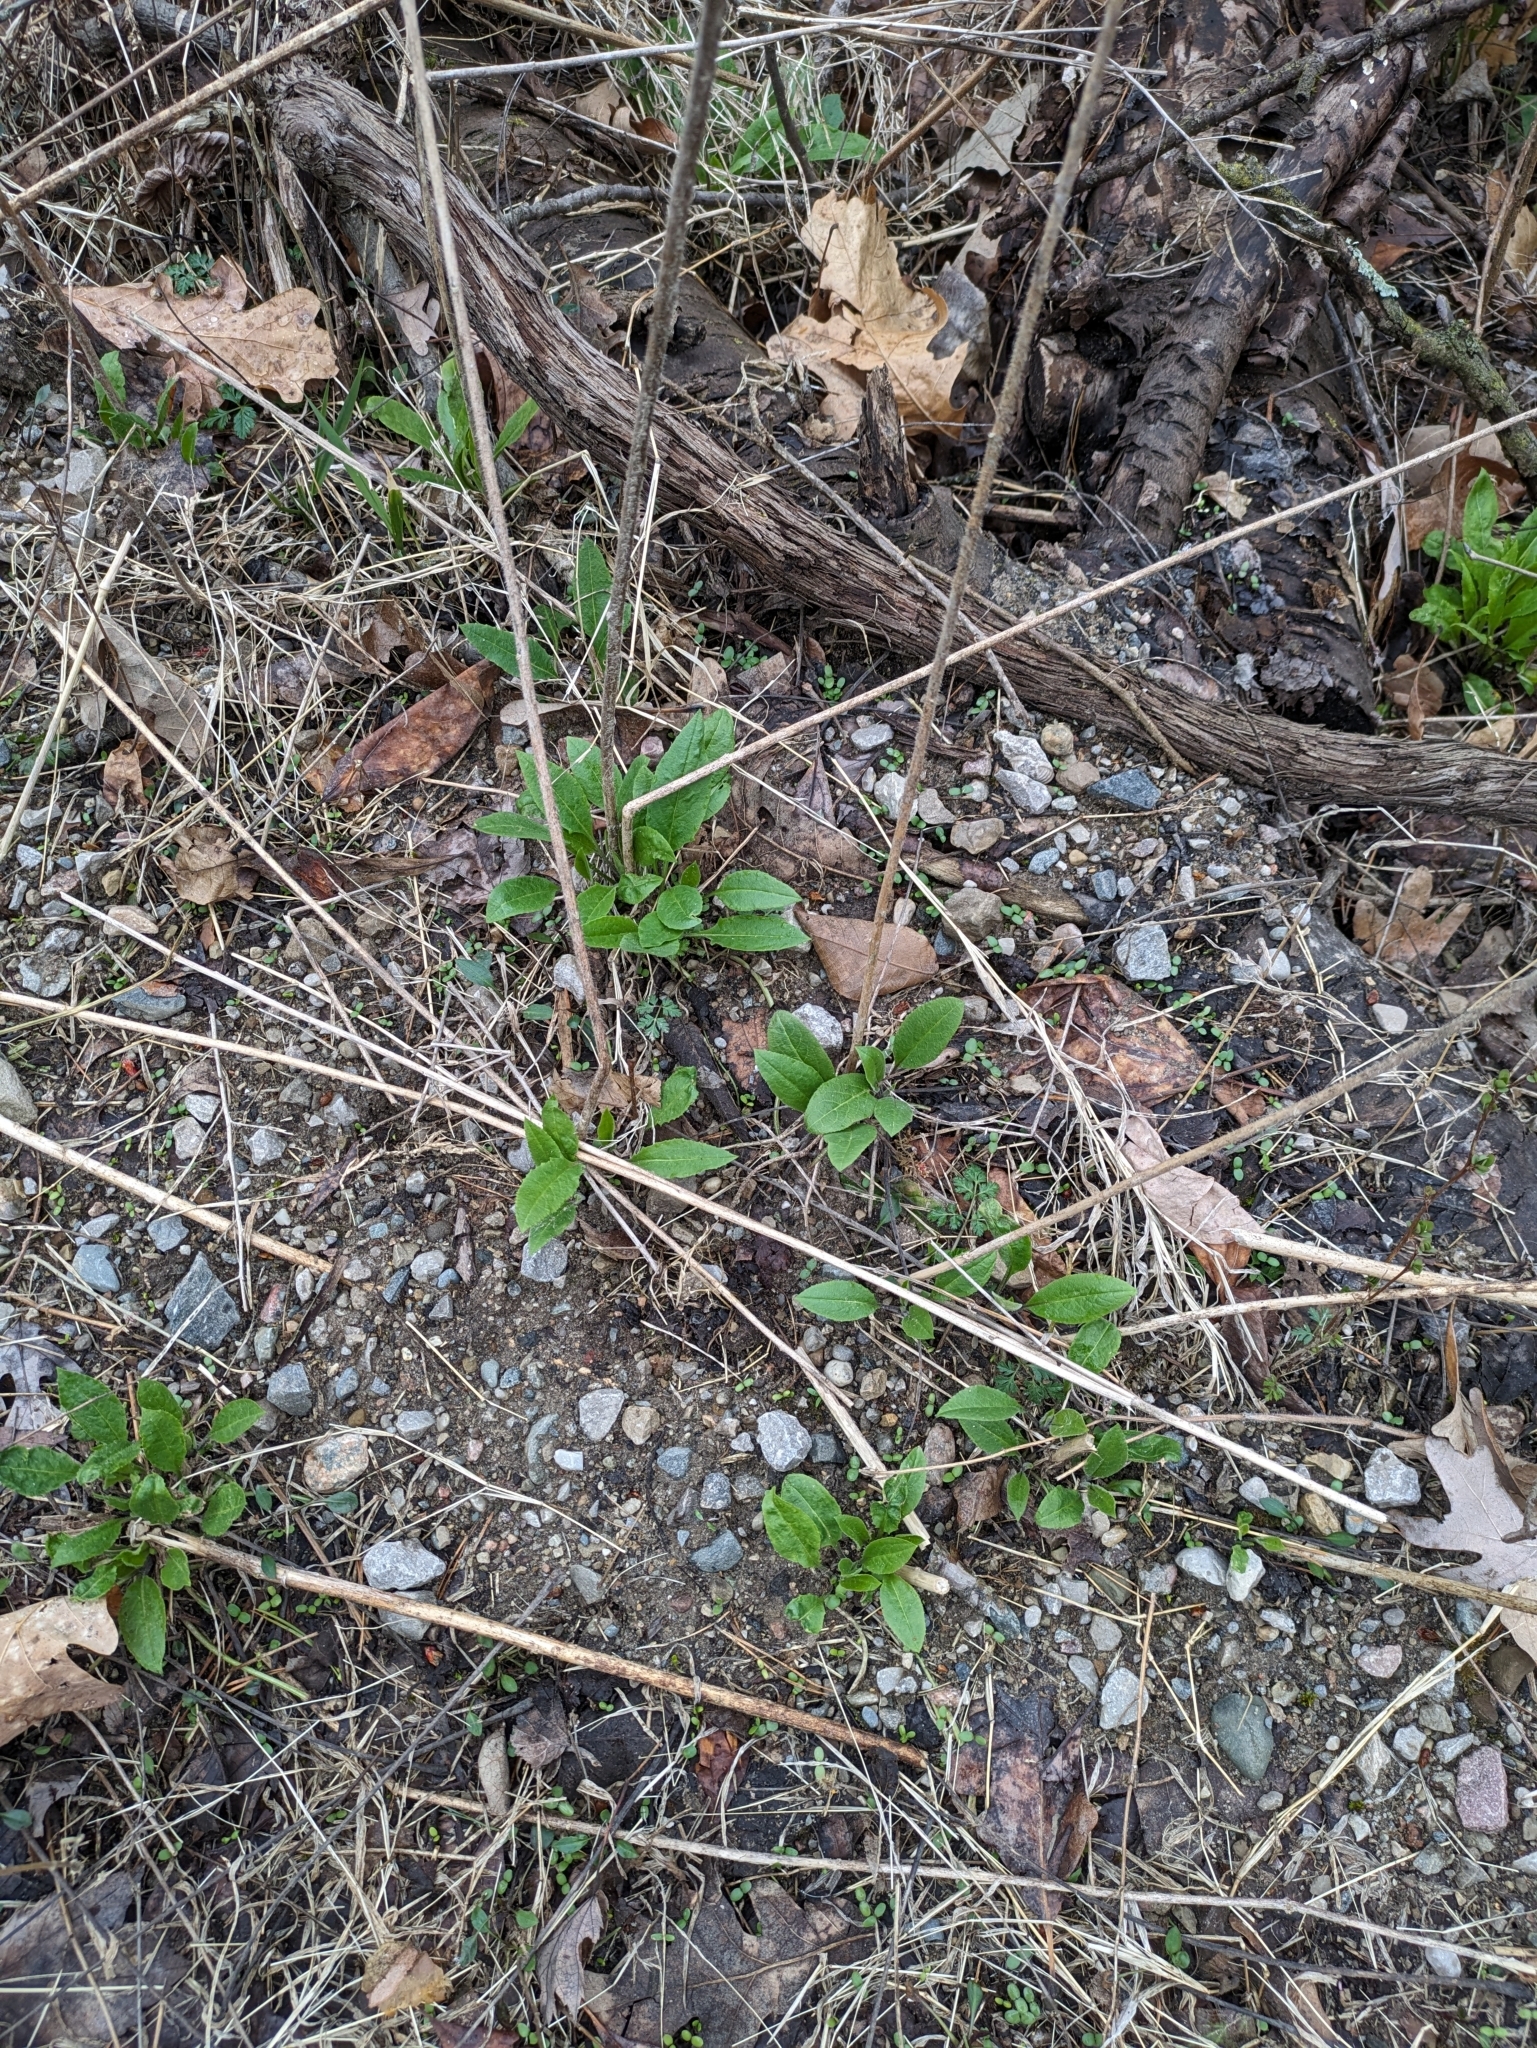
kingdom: Plantae
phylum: Tracheophyta
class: Magnoliopsida
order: Brassicales
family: Brassicaceae
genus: Hesperis
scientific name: Hesperis matronalis
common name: Dame's-violet
